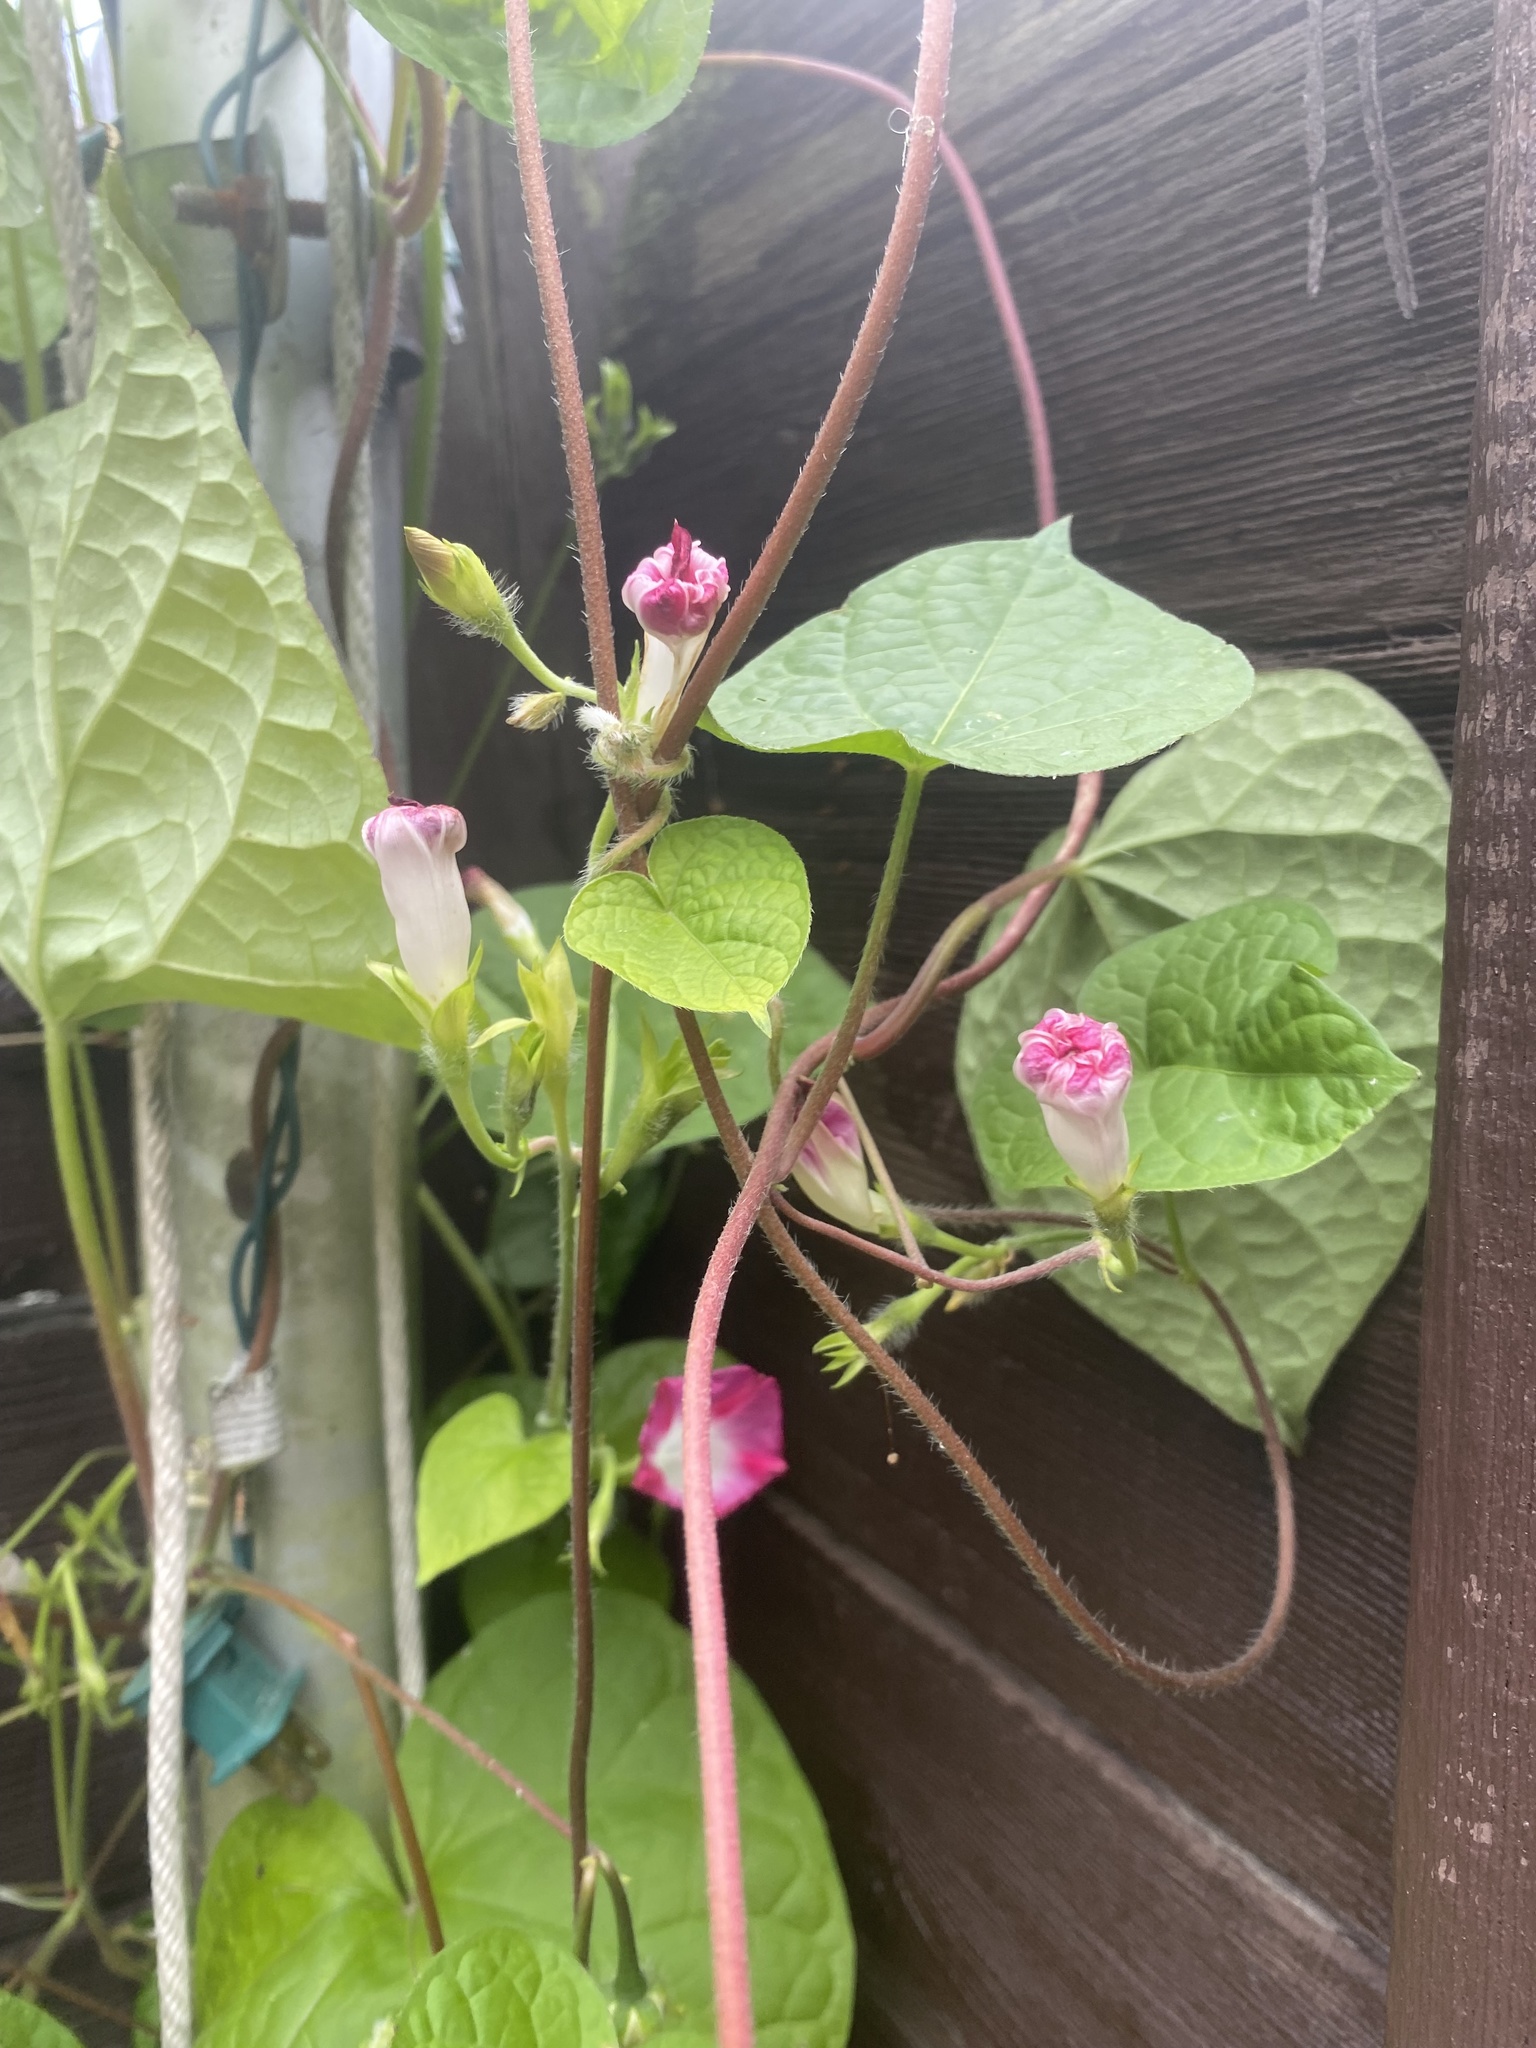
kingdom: Plantae
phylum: Tracheophyta
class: Magnoliopsida
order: Solanales
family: Convolvulaceae
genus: Ipomoea
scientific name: Ipomoea purpurea
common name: Common morning-glory
